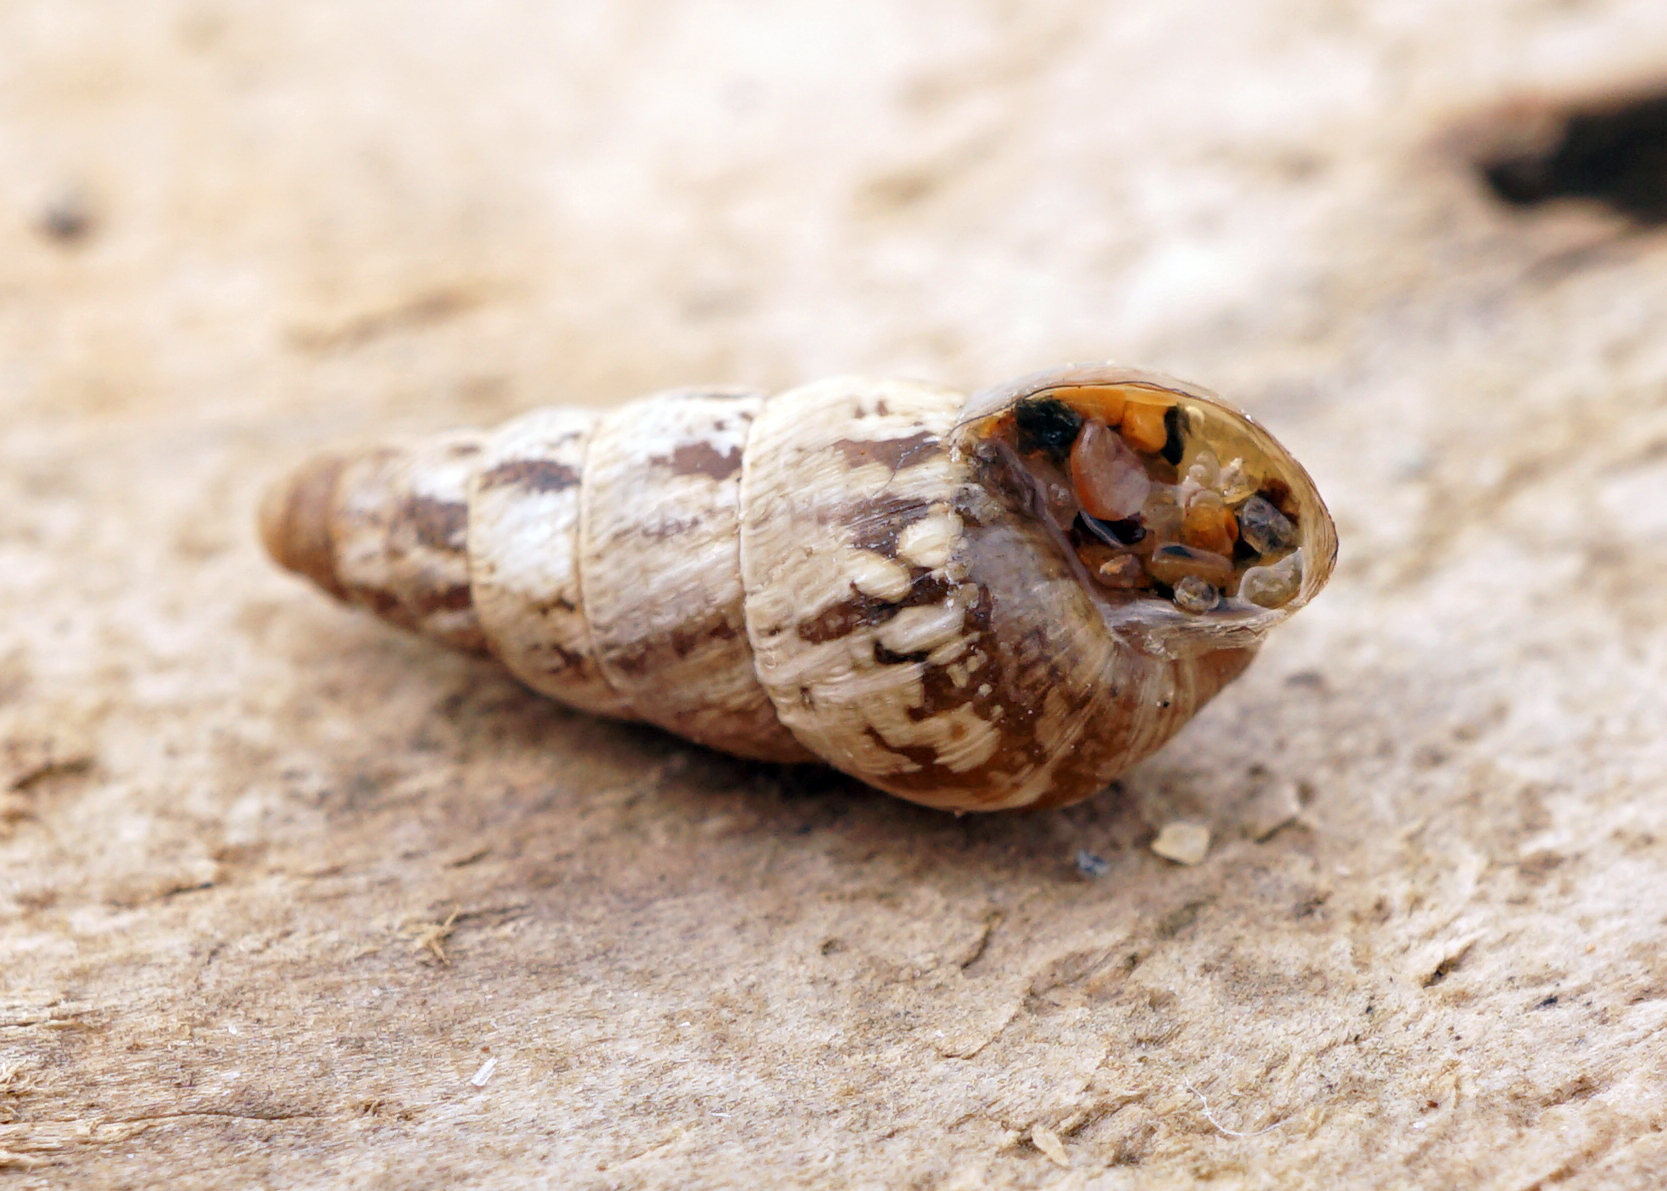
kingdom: Animalia
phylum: Mollusca
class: Gastropoda
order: Stylommatophora
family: Geomitridae
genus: Cochlicella
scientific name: Cochlicella acuta
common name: Pointed snail
